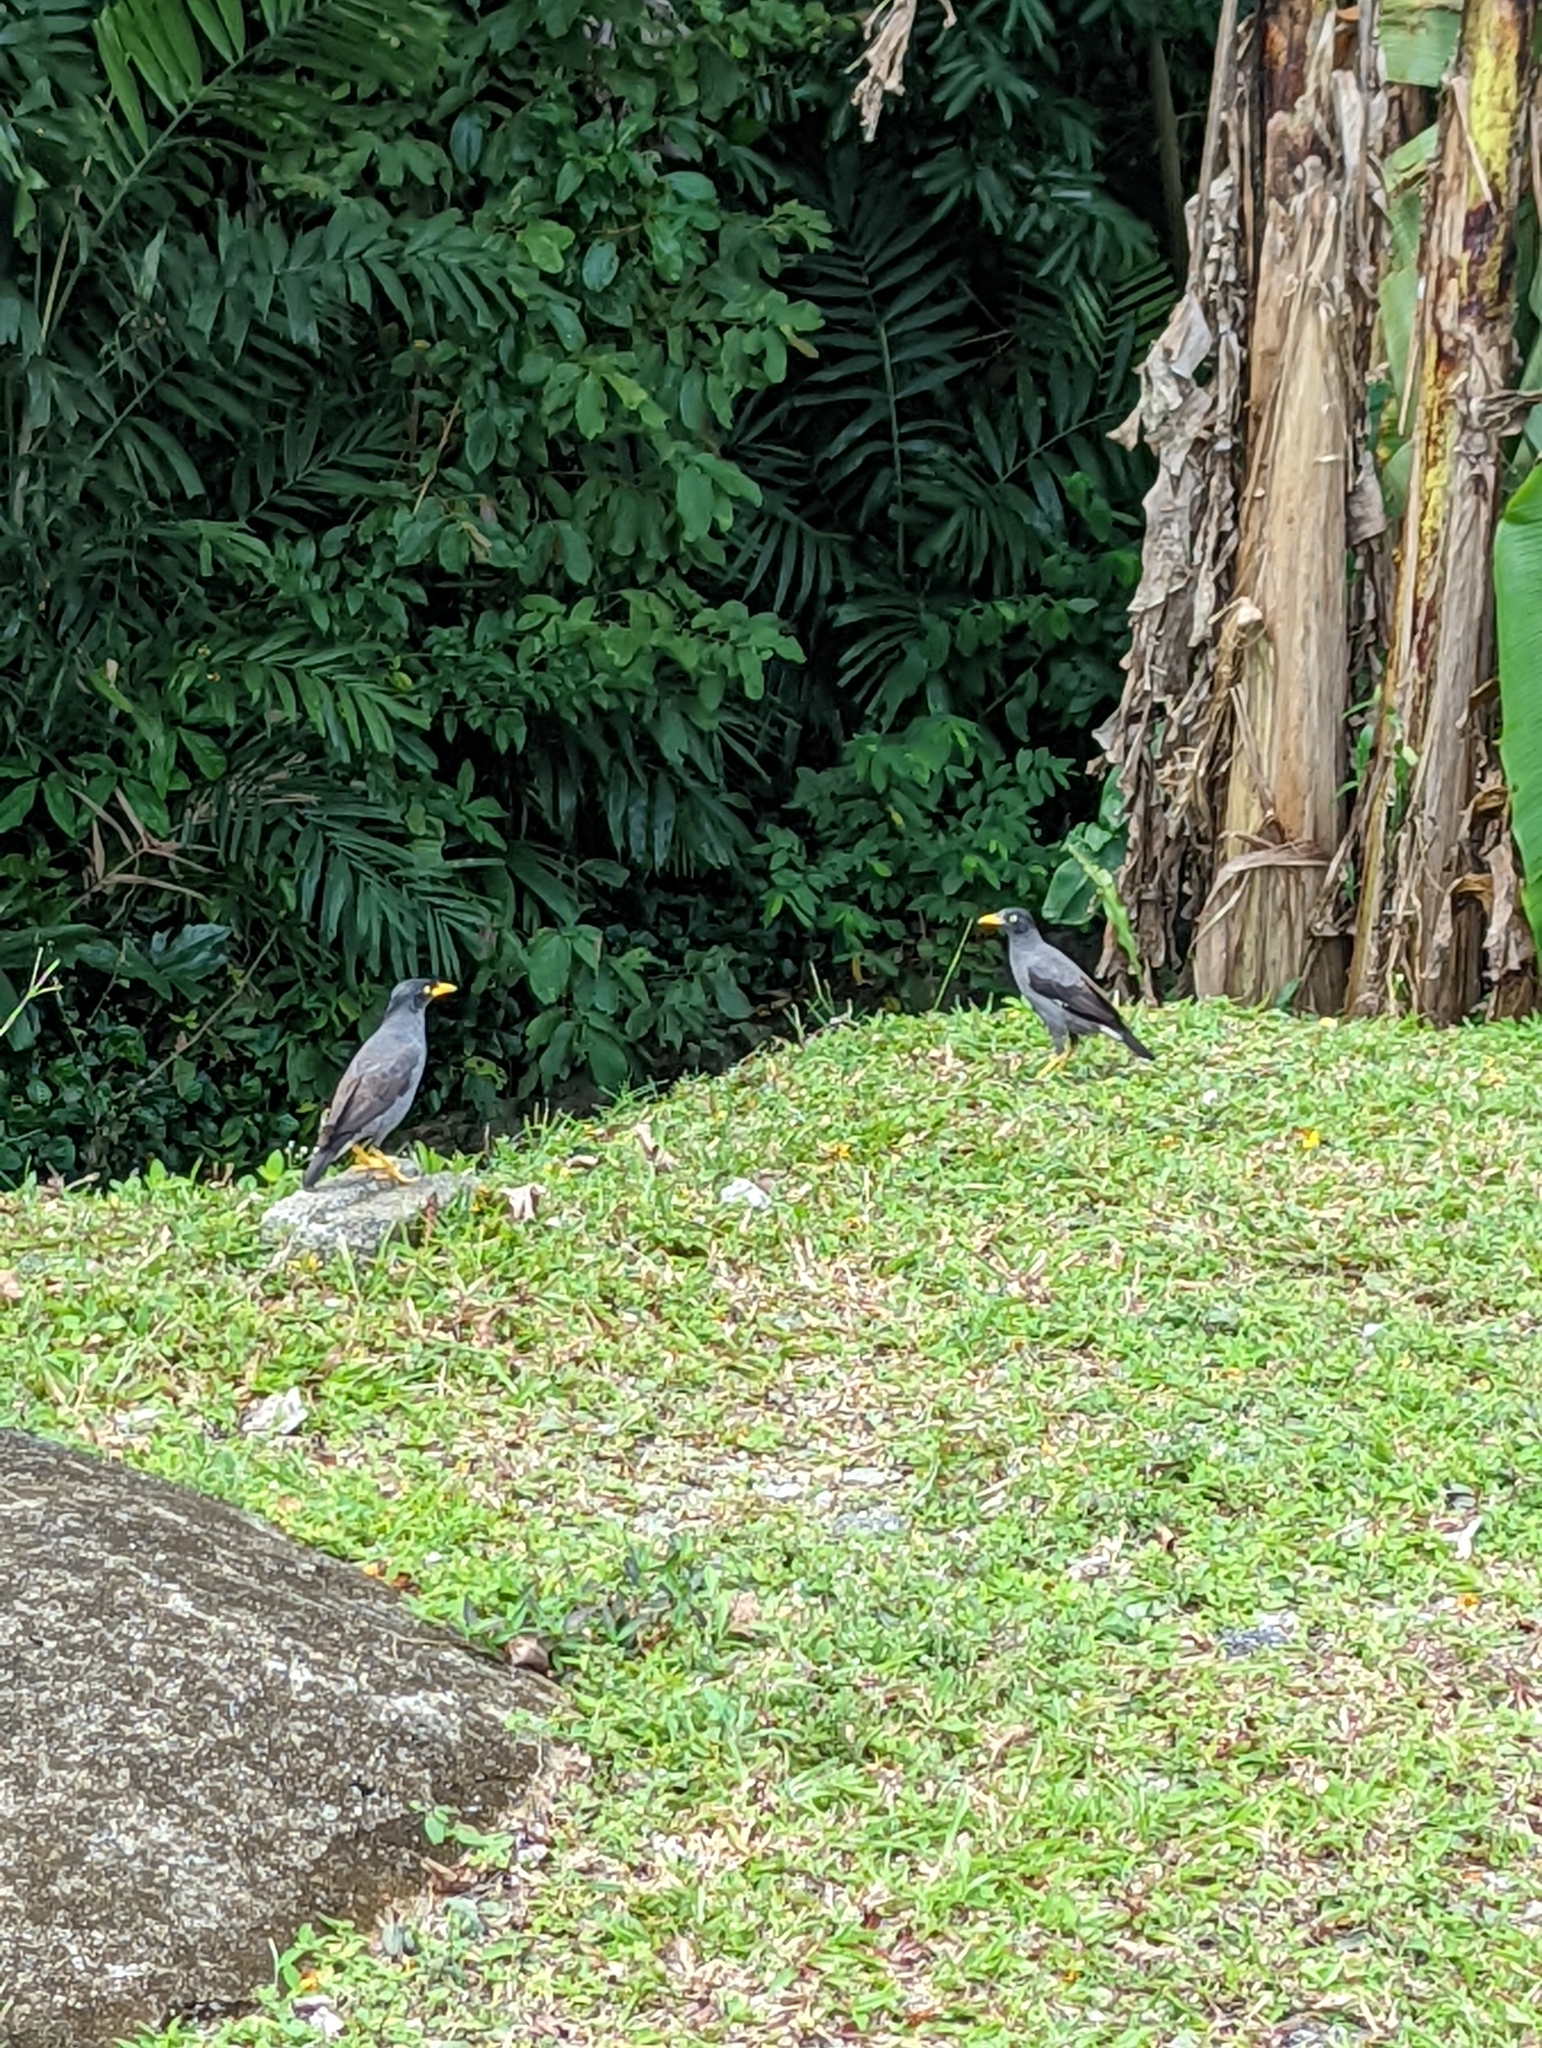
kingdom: Animalia
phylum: Chordata
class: Aves
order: Passeriformes
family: Sturnidae
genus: Acridotheres
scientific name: Acridotheres javanicus
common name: Javan myna
